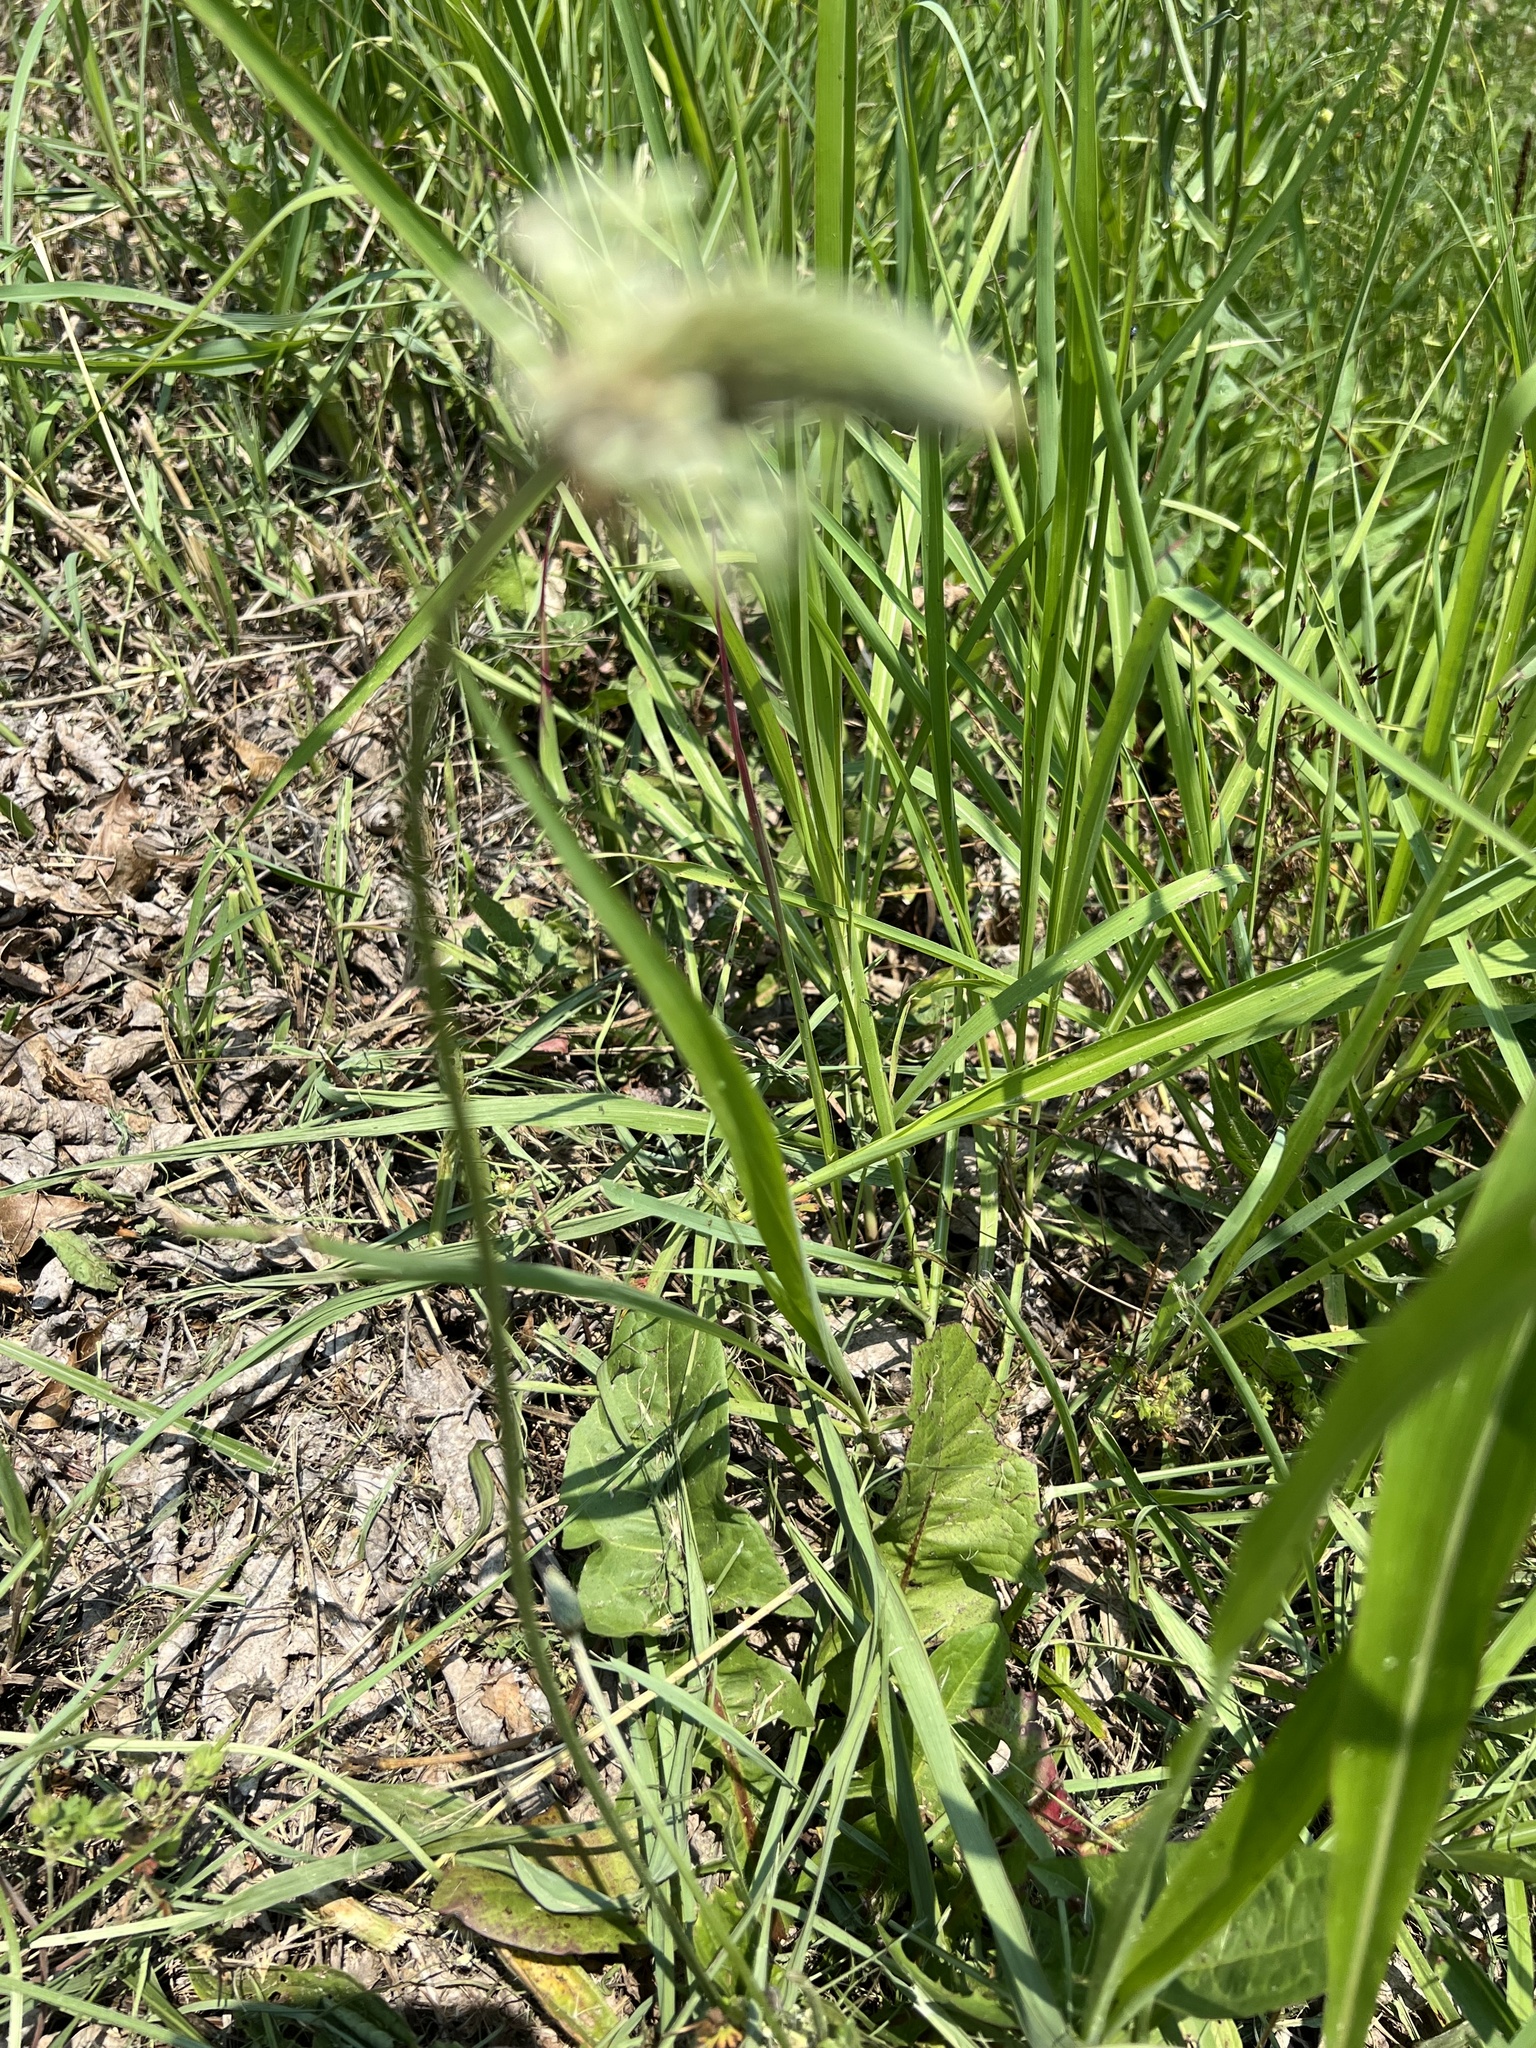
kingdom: Plantae
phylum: Tracheophyta
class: Magnoliopsida
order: Lamiales
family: Plantaginaceae
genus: Plantago
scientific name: Plantago lanceolata
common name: Ribwort plantain
